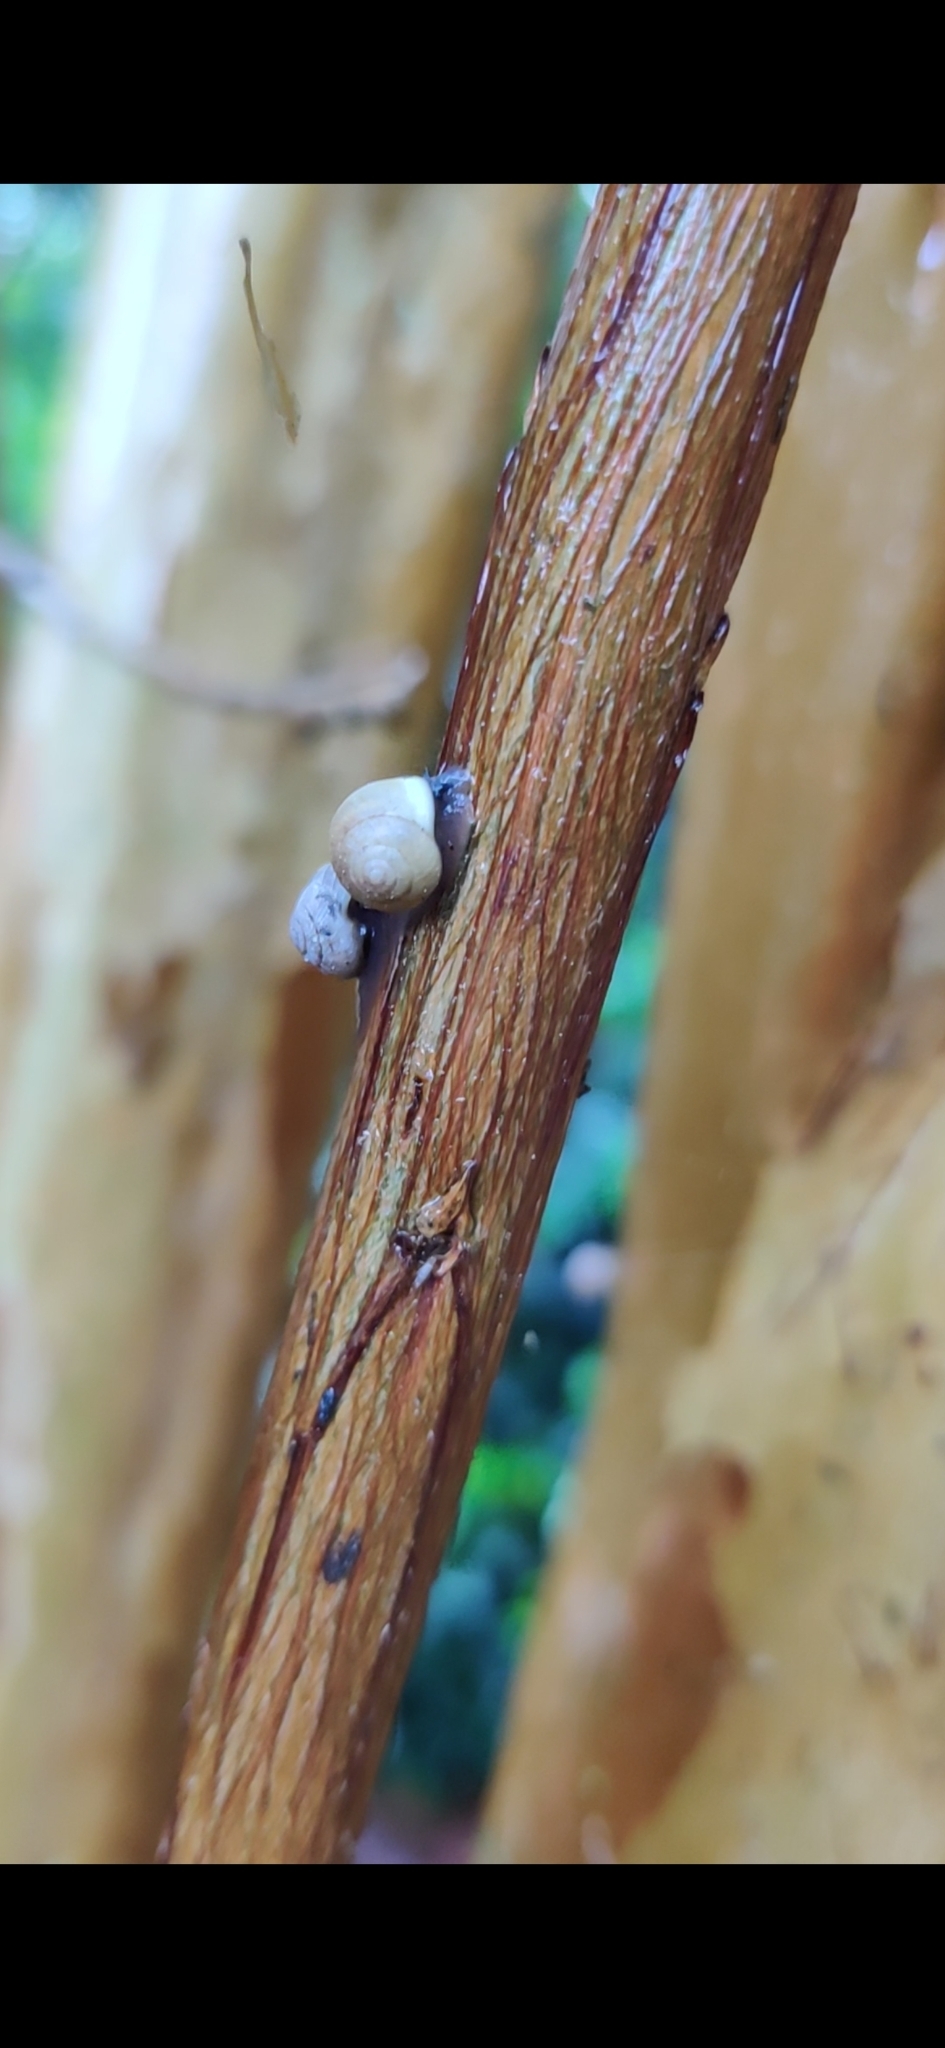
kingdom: Animalia
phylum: Mollusca
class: Gastropoda
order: Cycloneritida
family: Helicinidae
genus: Helicina
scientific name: Helicina orbiculata
